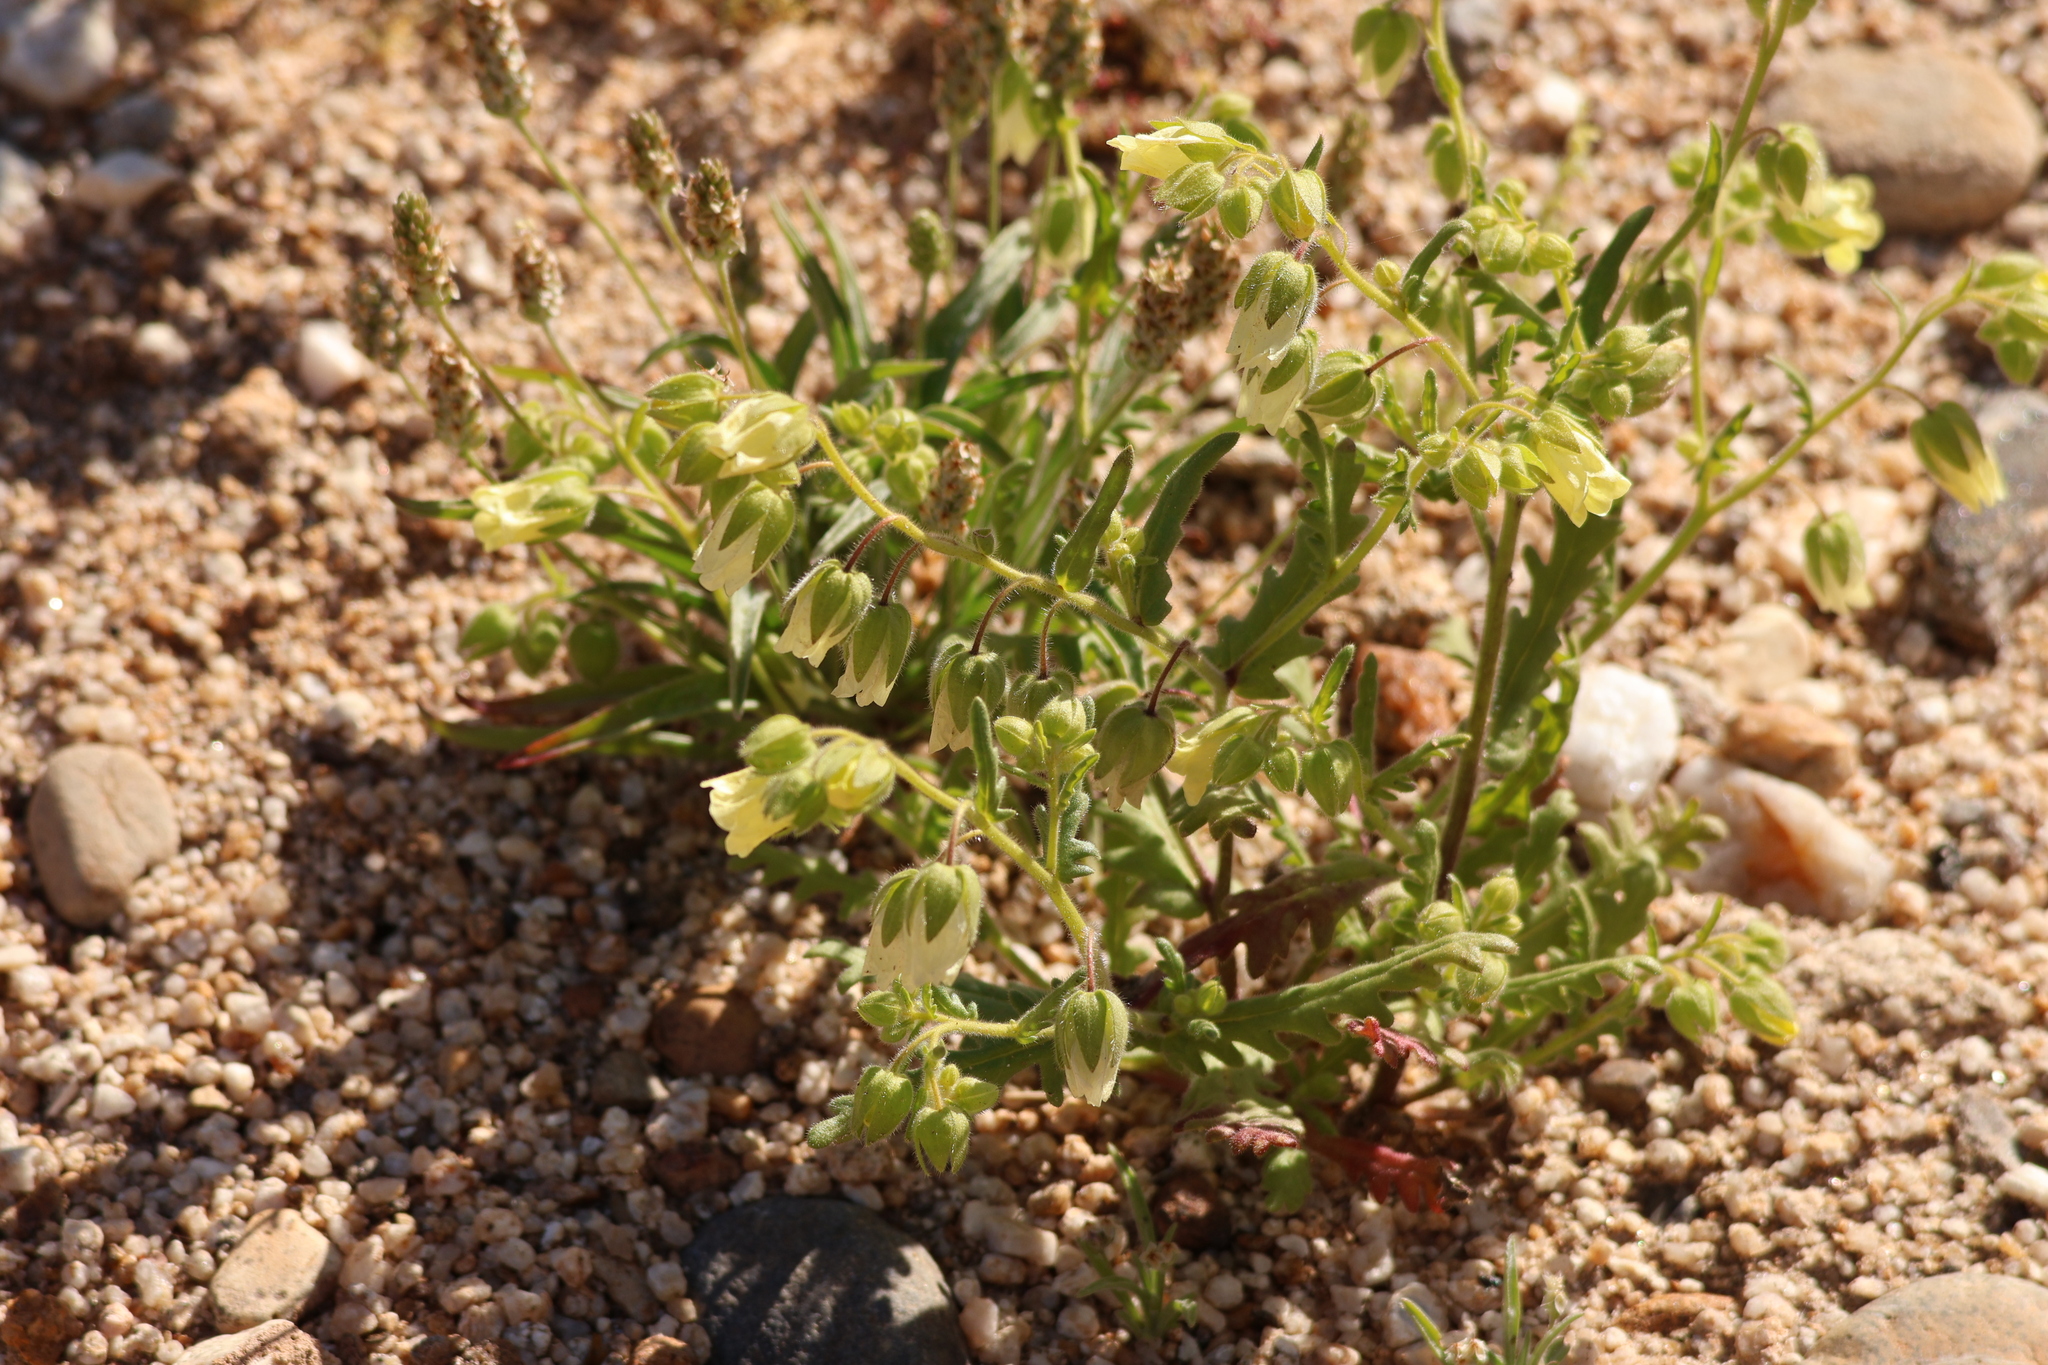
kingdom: Plantae
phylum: Tracheophyta
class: Magnoliopsida
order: Boraginales
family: Hydrophyllaceae
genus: Emmenanthe
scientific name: Emmenanthe penduliflora
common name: Whispering-bells
